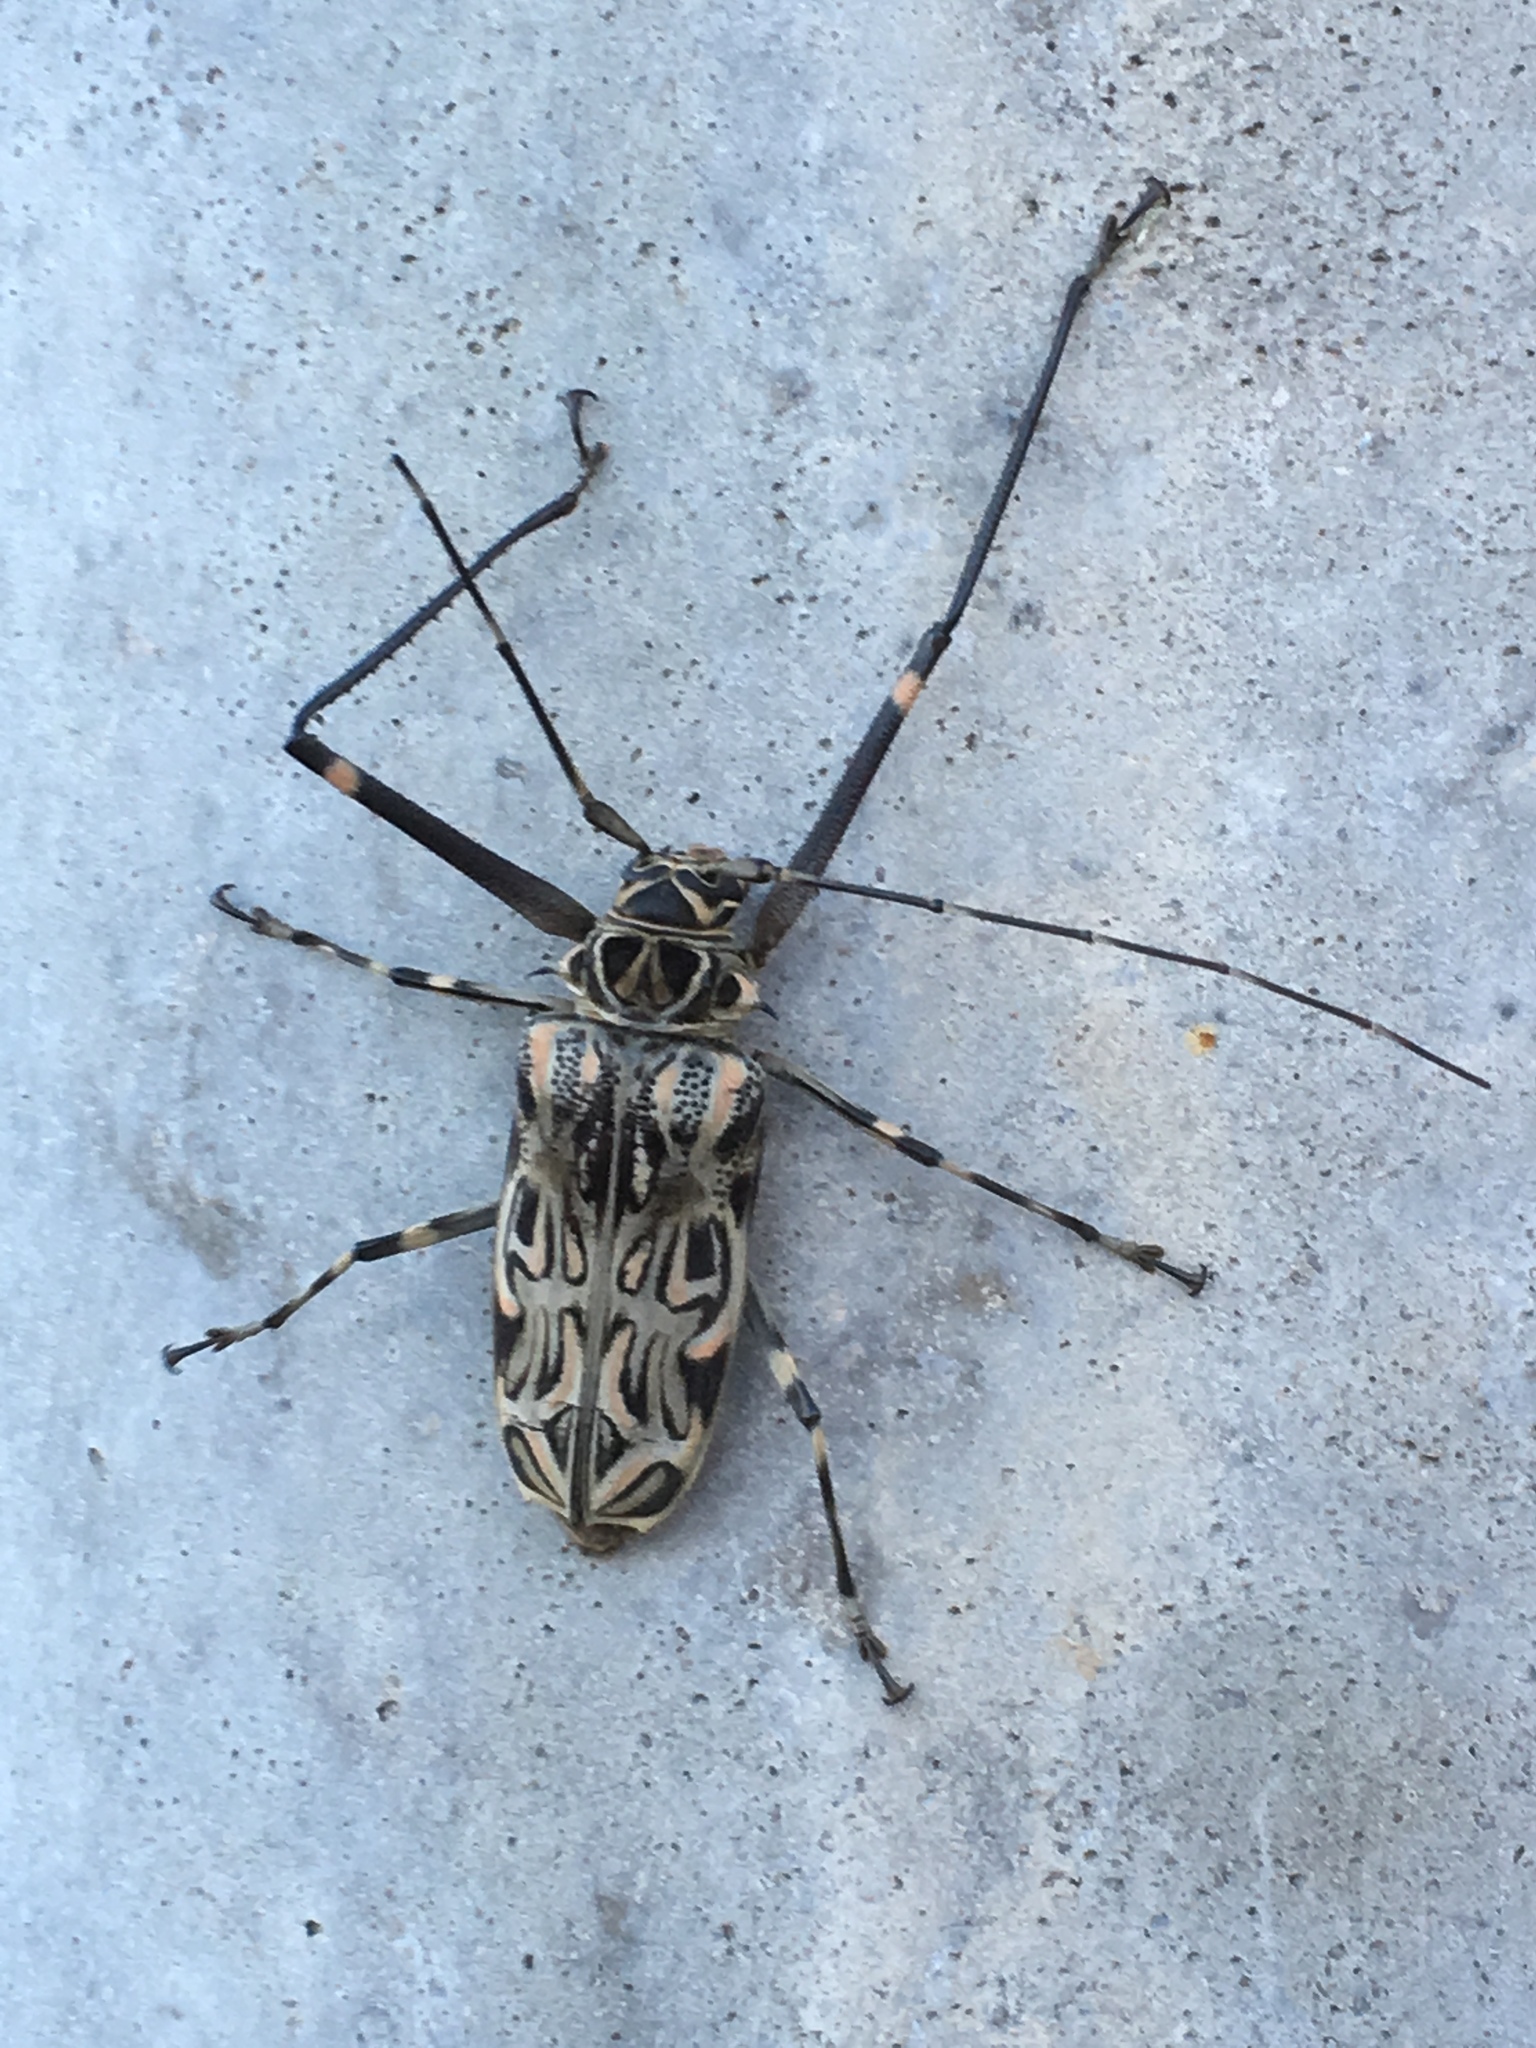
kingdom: Animalia
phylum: Arthropoda
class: Insecta
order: Coleoptera
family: Cerambycidae
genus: Acrocinus
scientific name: Acrocinus longimanus
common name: Arlequin
